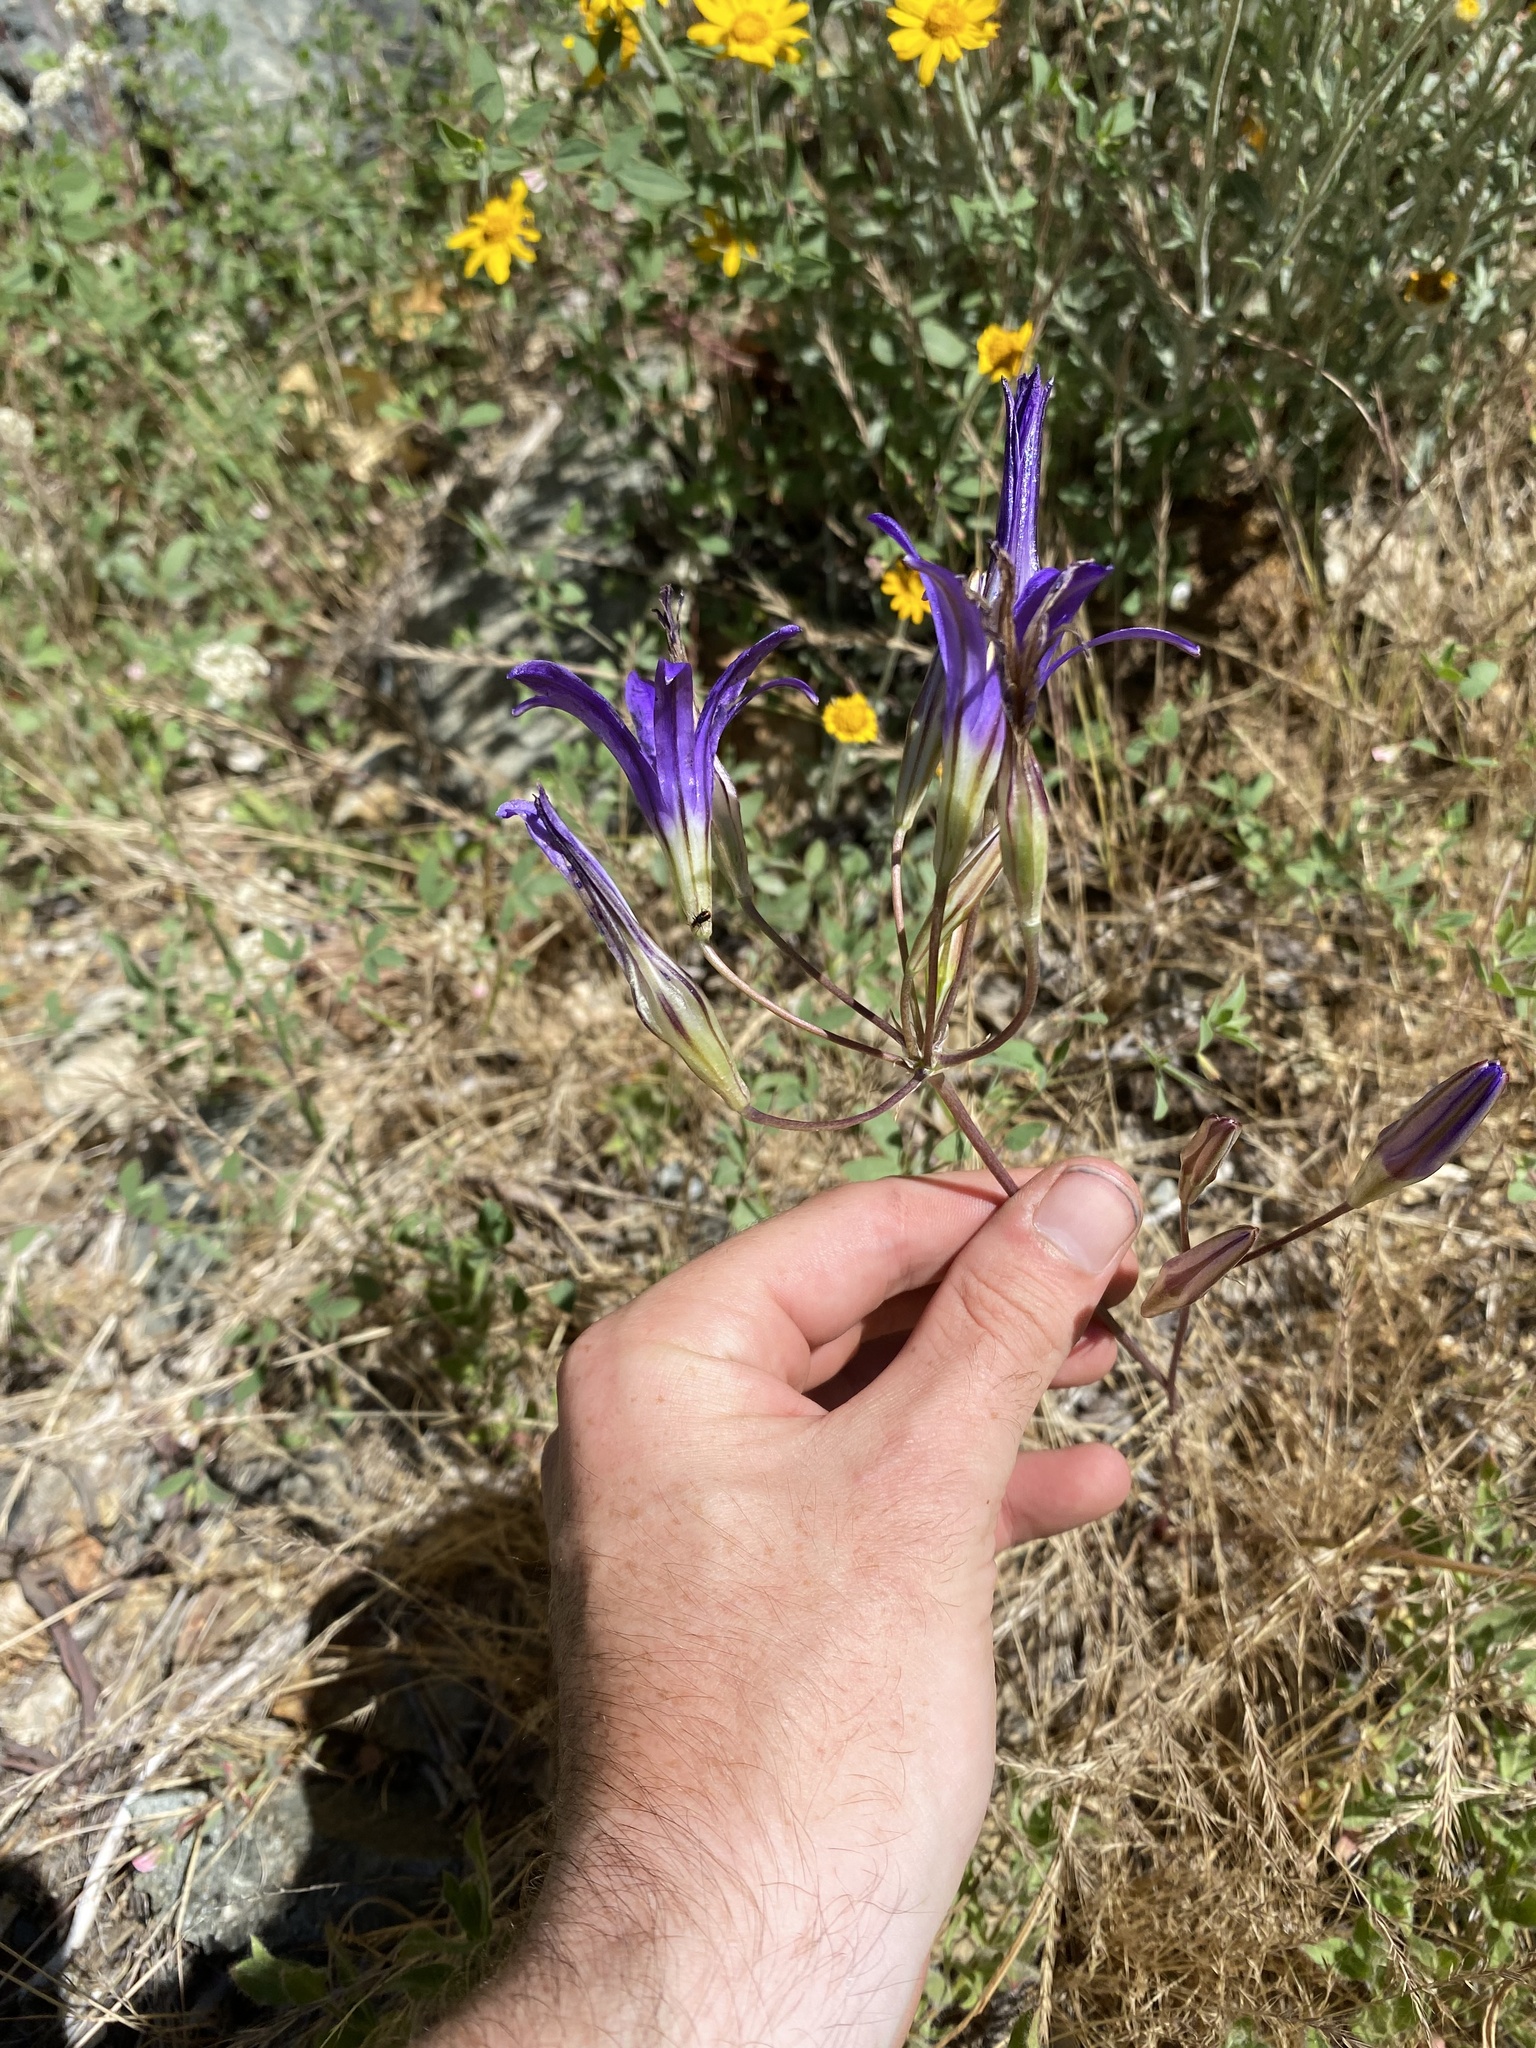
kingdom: Plantae
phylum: Tracheophyta
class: Liliopsida
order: Asparagales
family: Asparagaceae
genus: Brodiaea
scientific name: Brodiaea elegans
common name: Elegant cluster-lily
